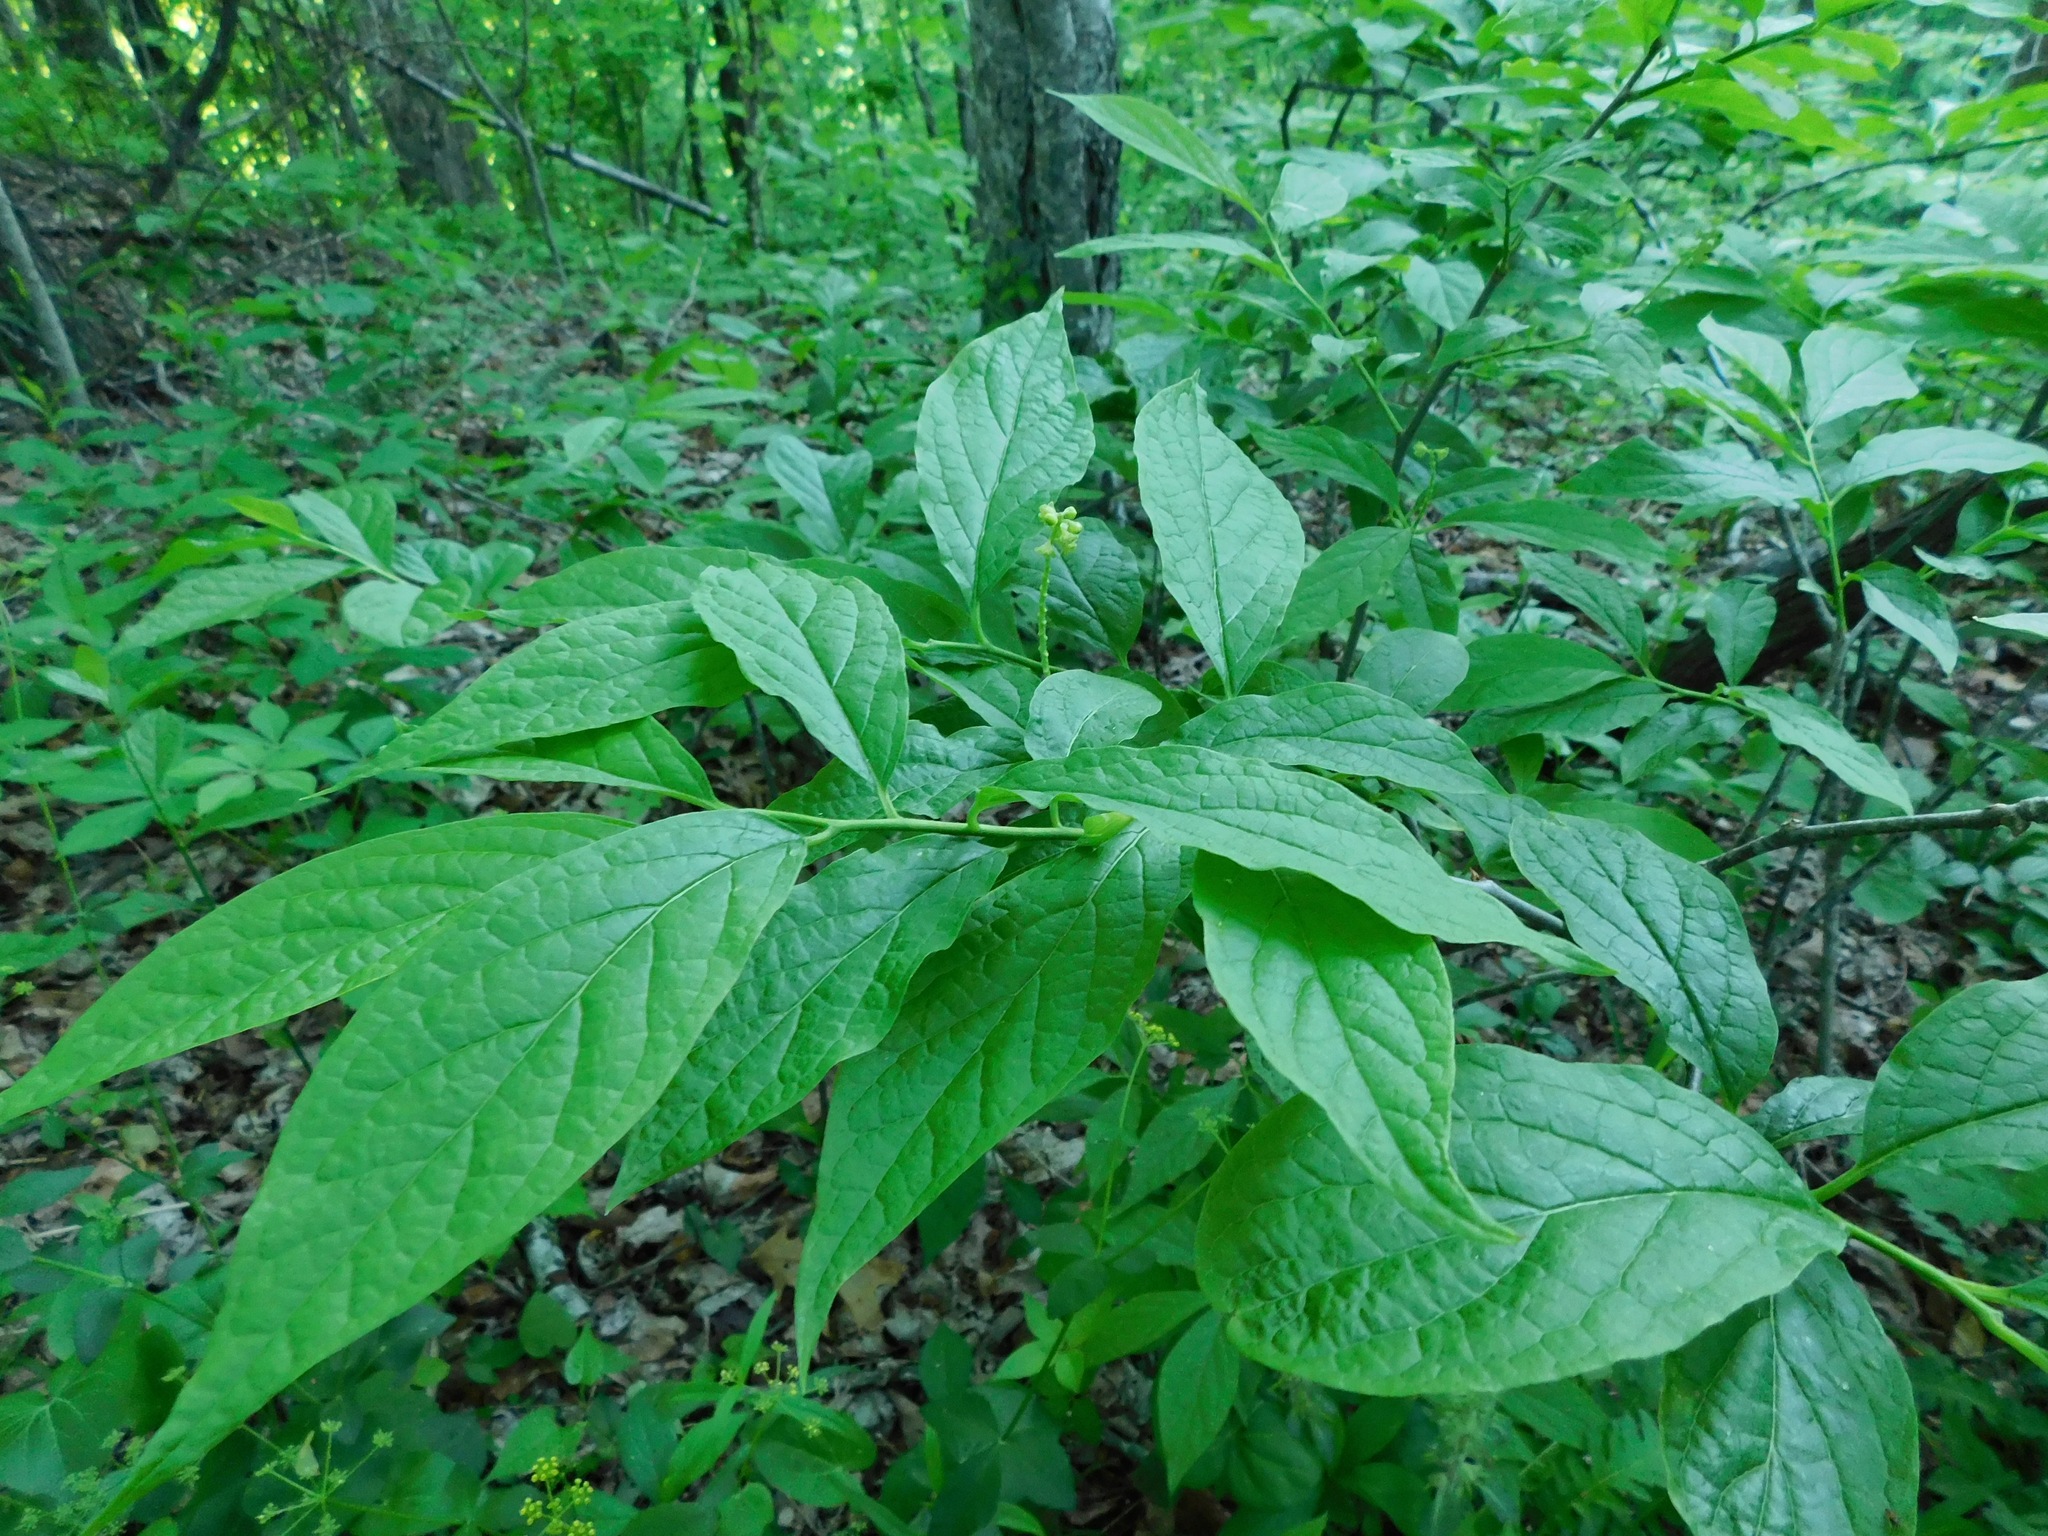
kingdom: Plantae
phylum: Tracheophyta
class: Magnoliopsida
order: Santalales
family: Cervantesiaceae
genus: Pyrularia
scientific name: Pyrularia pubera
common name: Oilnut
